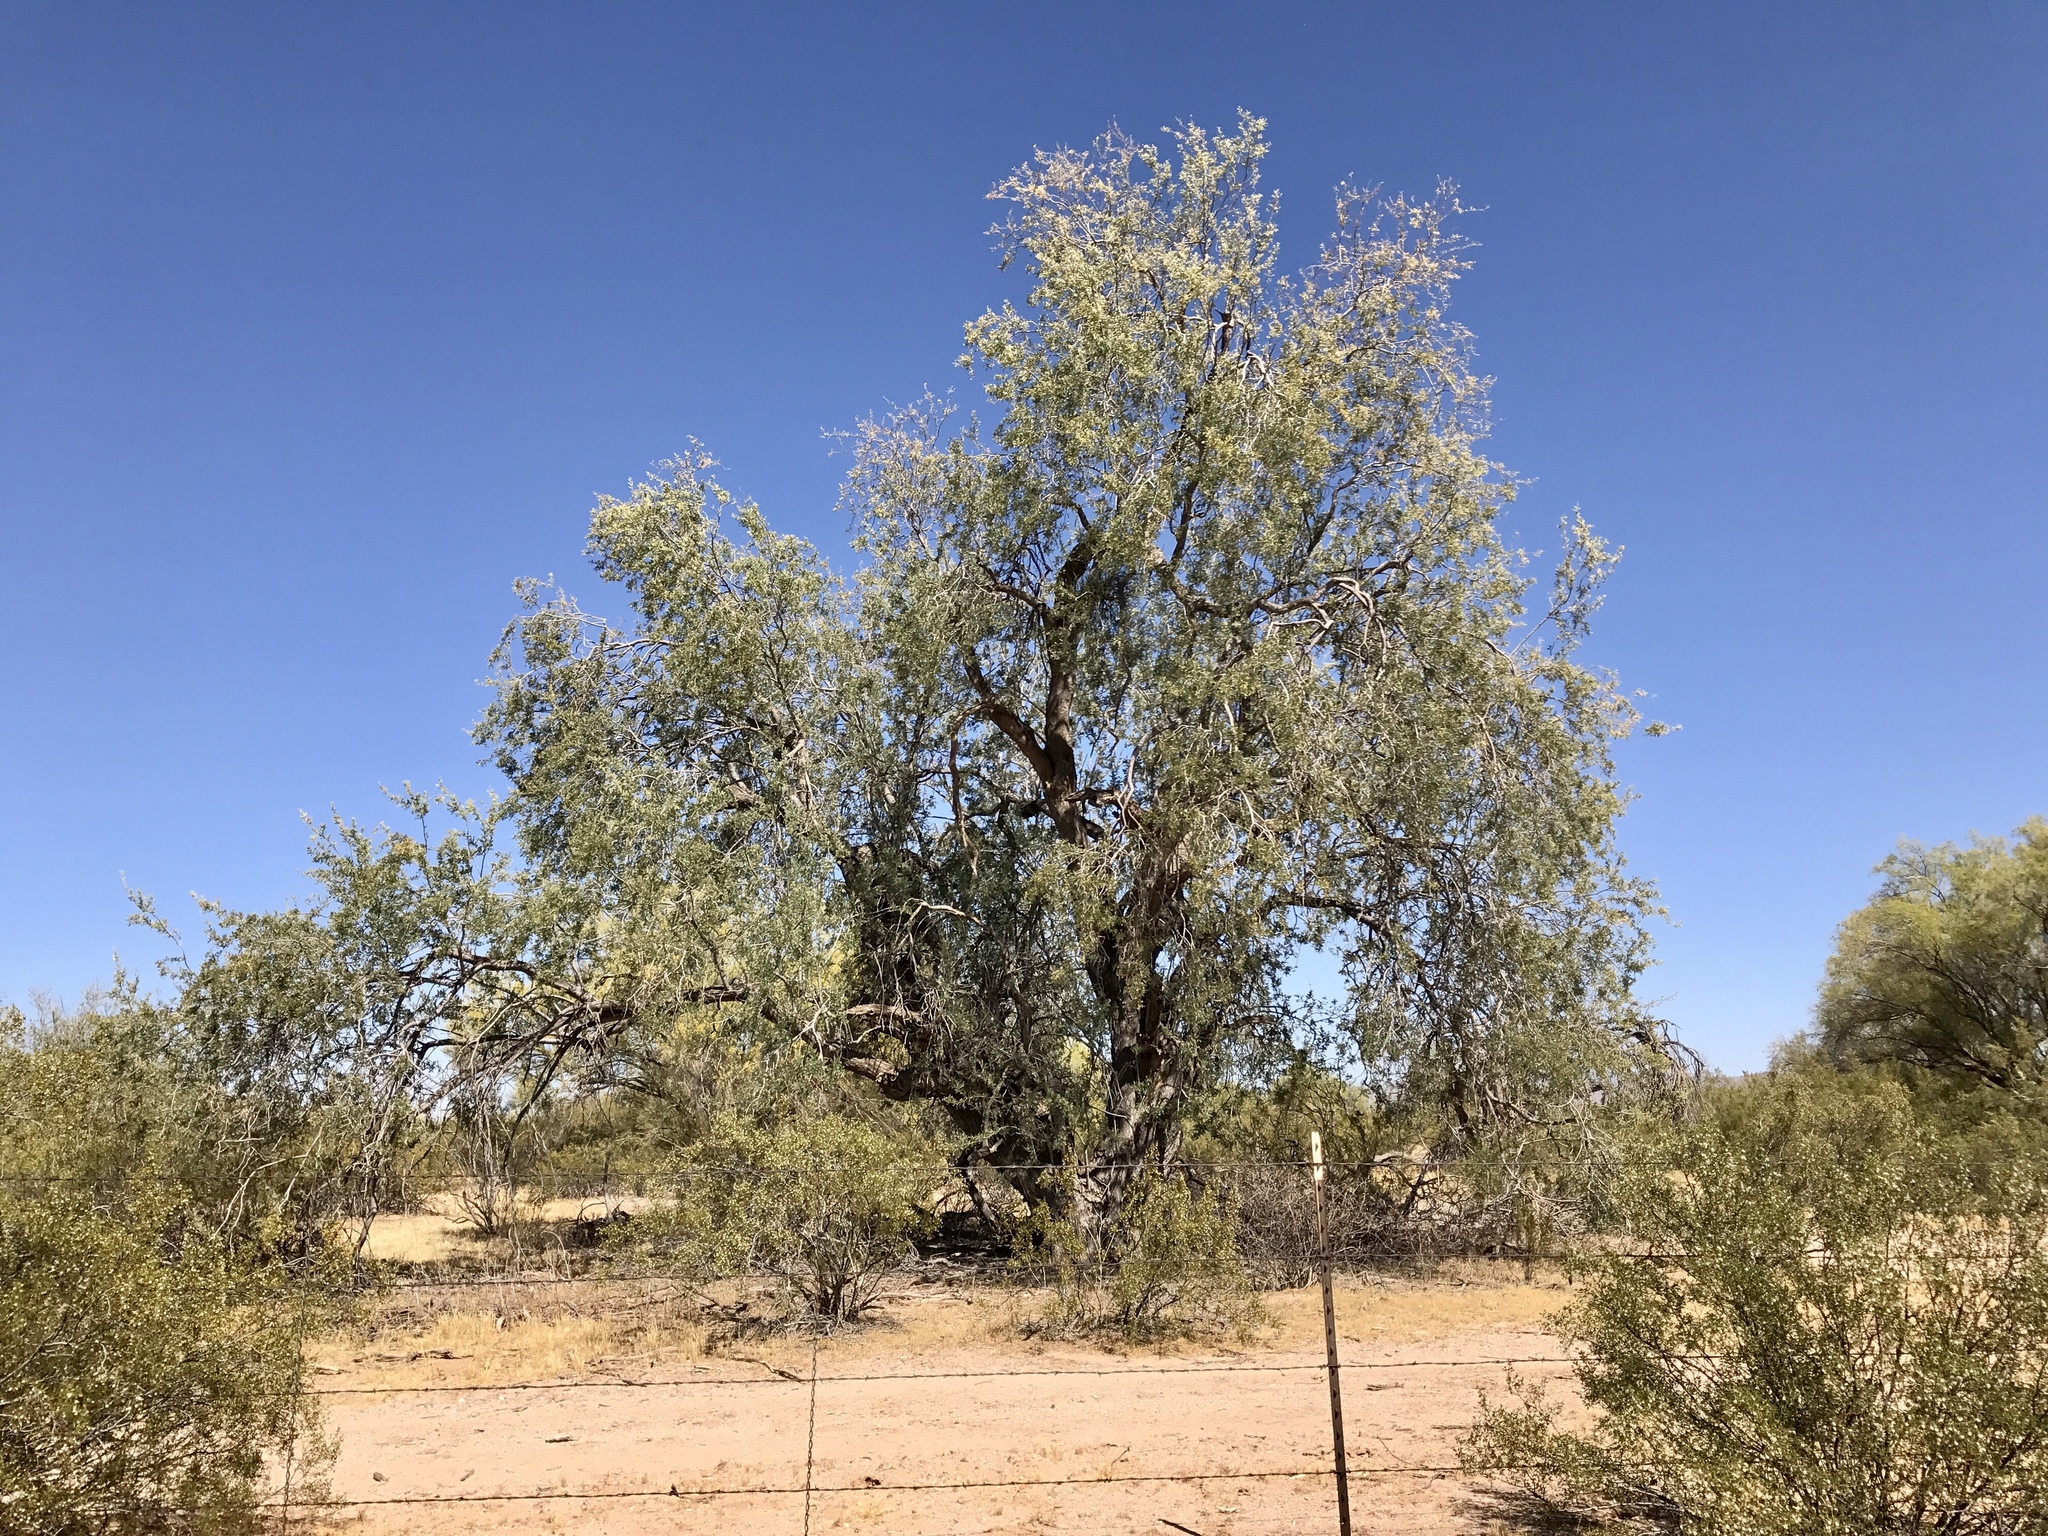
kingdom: Plantae
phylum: Tracheophyta
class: Magnoliopsida
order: Fabales
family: Fabaceae
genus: Olneya
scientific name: Olneya tesota
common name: Desert ironwood
